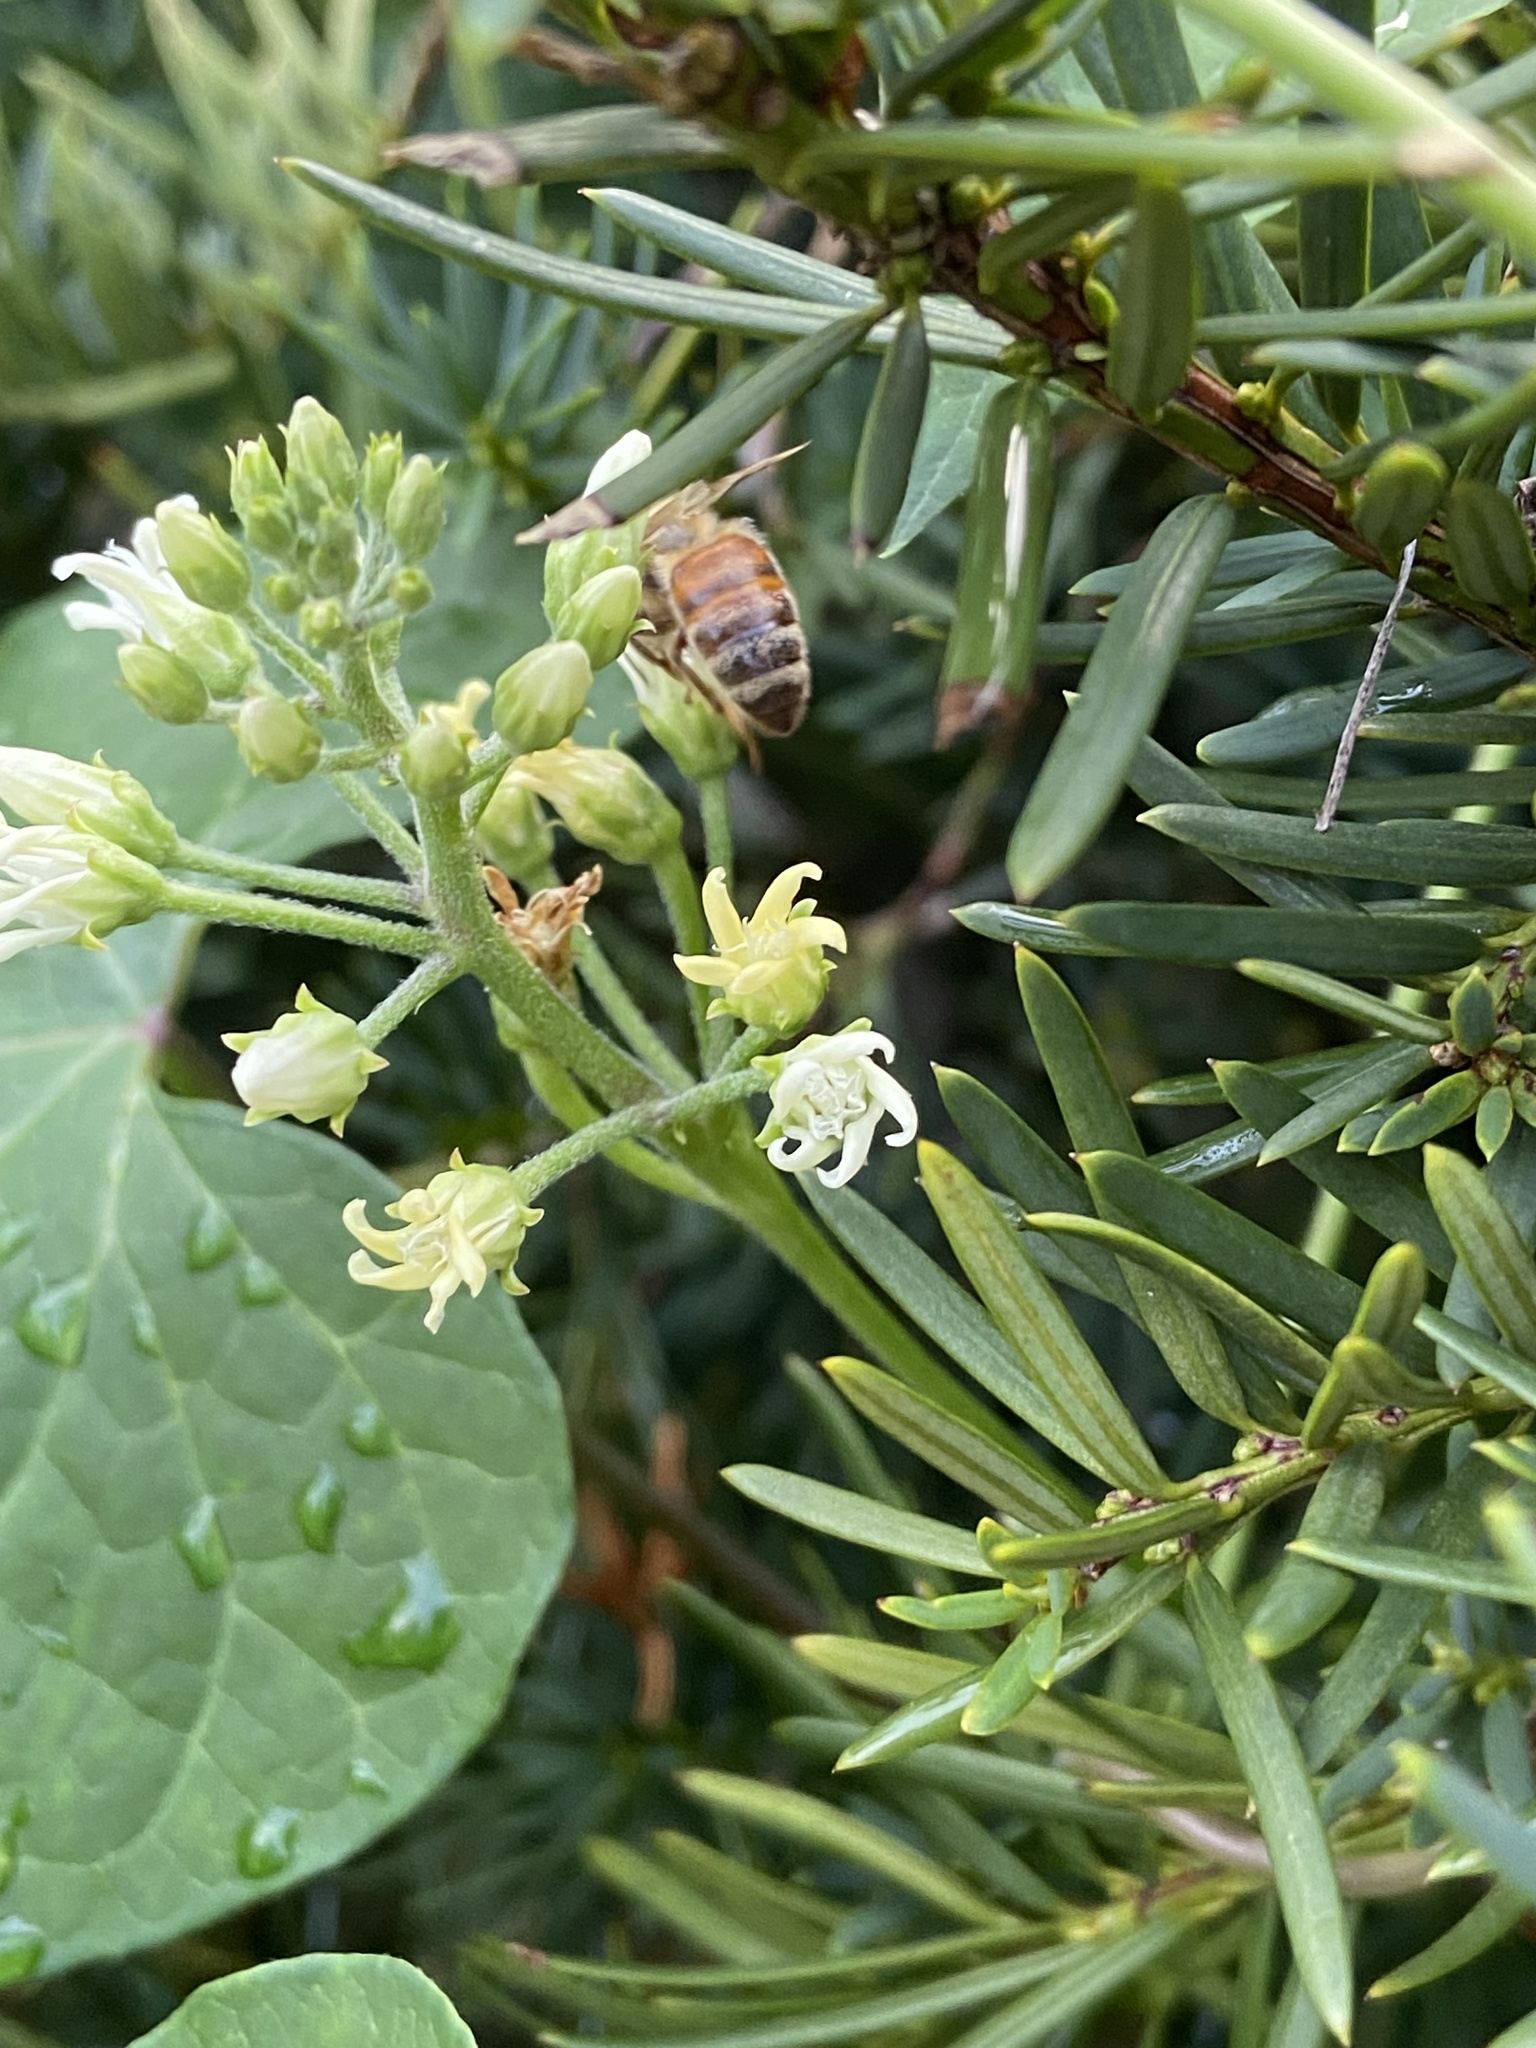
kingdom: Animalia
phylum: Arthropoda
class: Insecta
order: Hymenoptera
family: Apidae
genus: Apis
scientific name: Apis mellifera
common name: Honey bee
